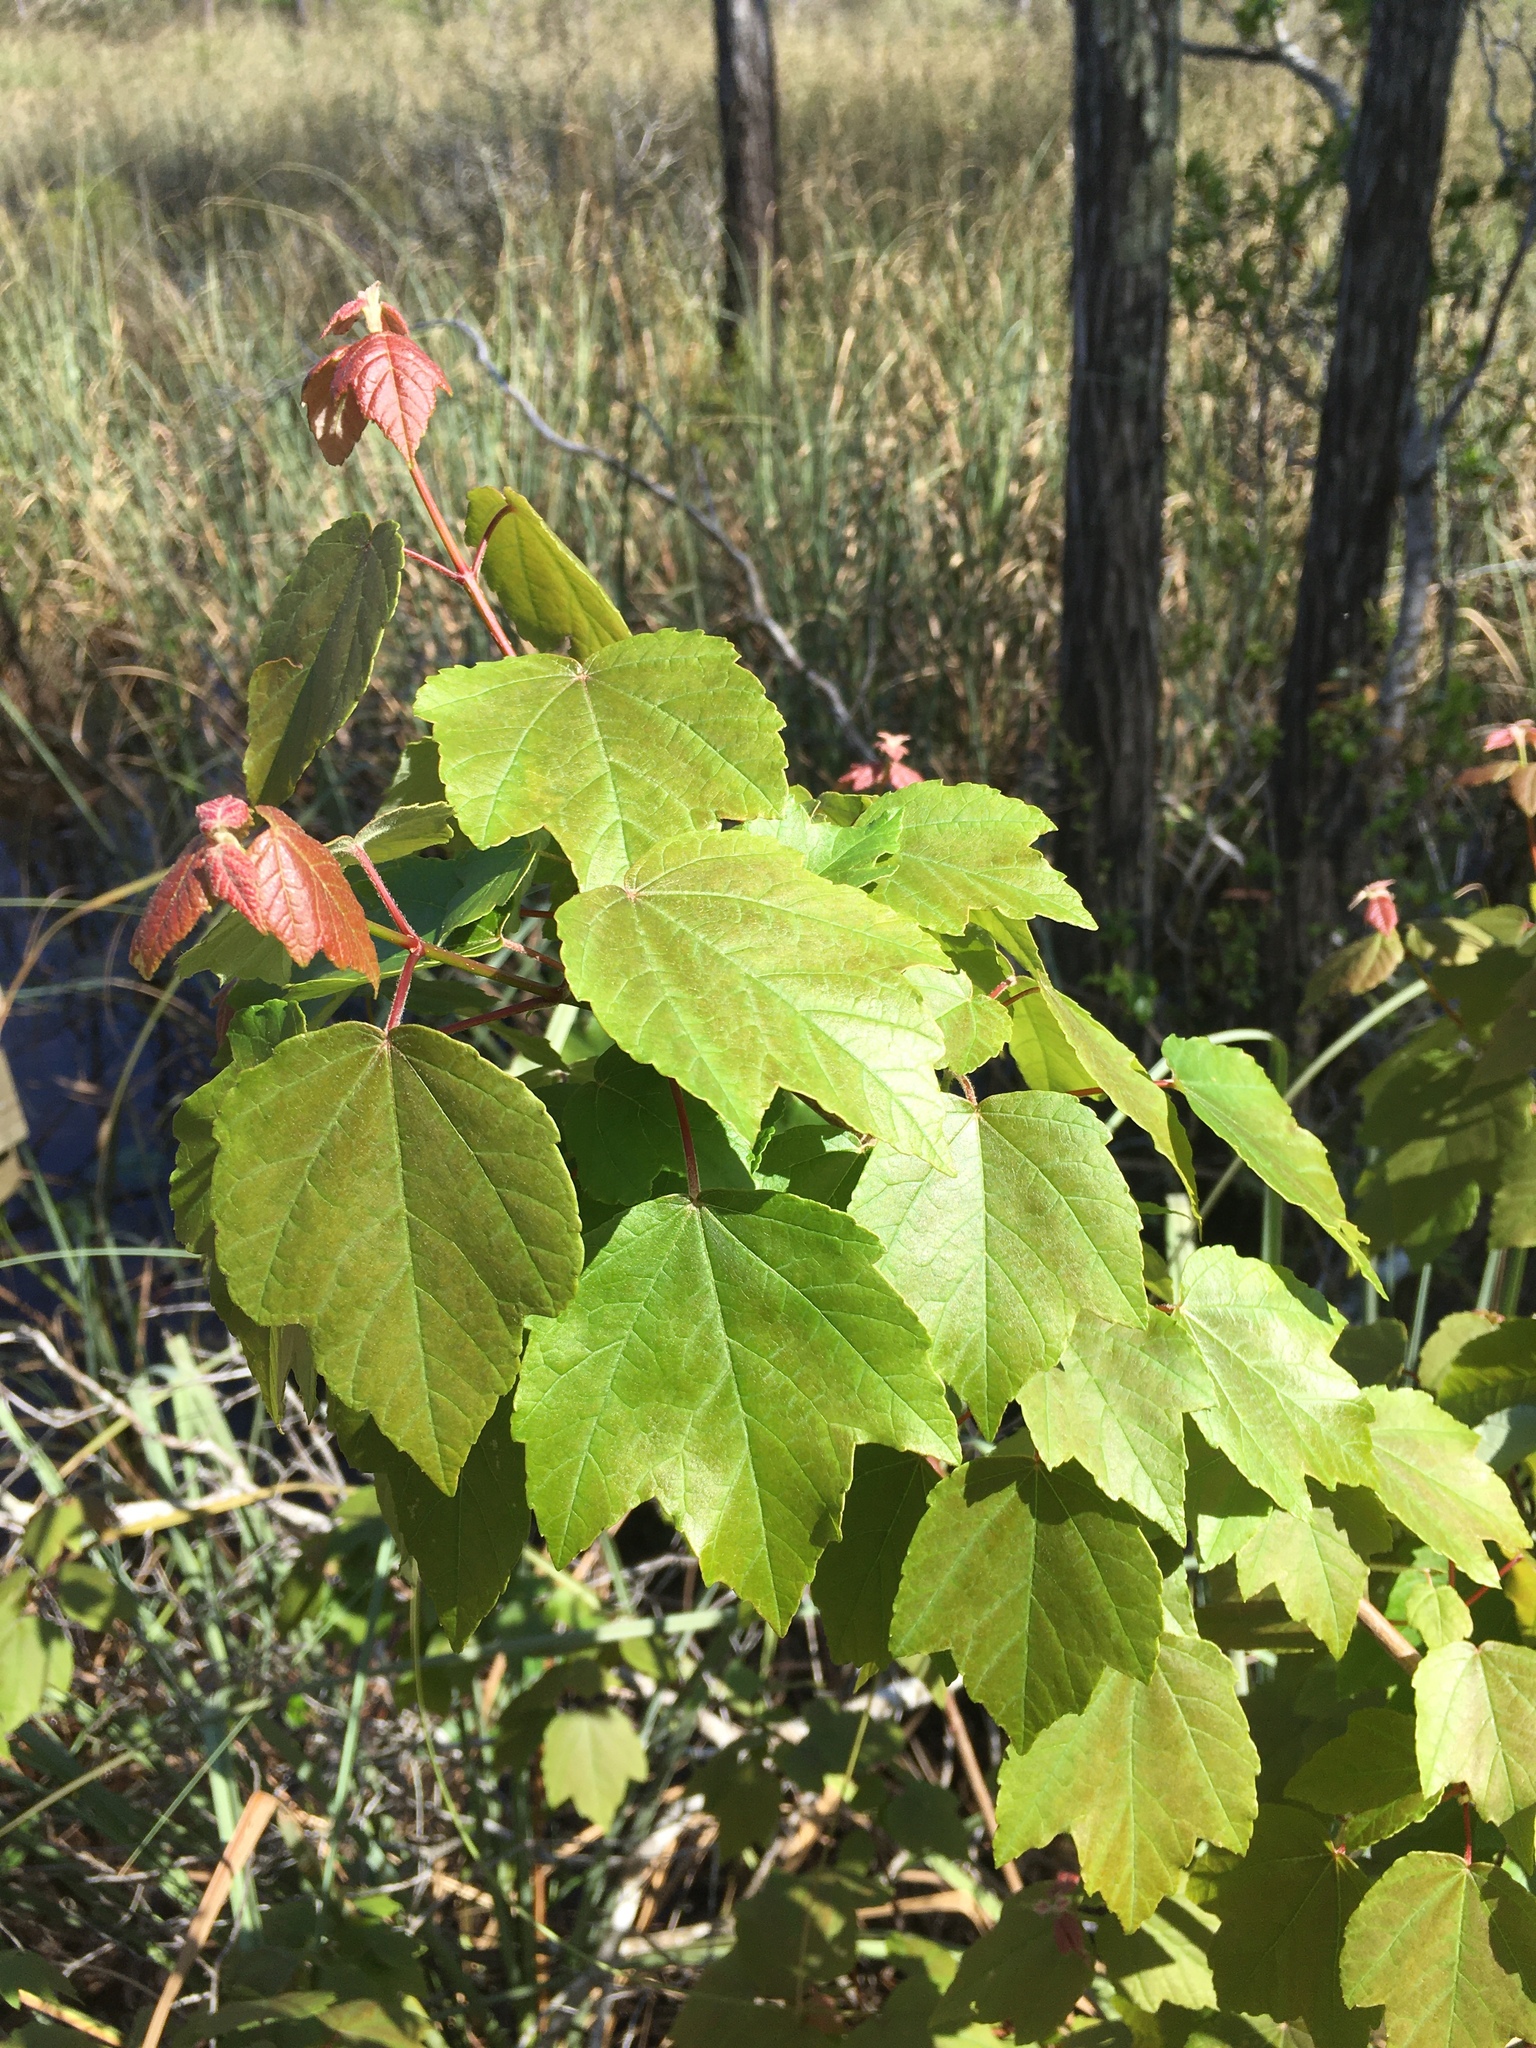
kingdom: Plantae
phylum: Tracheophyta
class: Magnoliopsida
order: Sapindales
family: Sapindaceae
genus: Acer
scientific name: Acer rubrum
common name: Red maple
